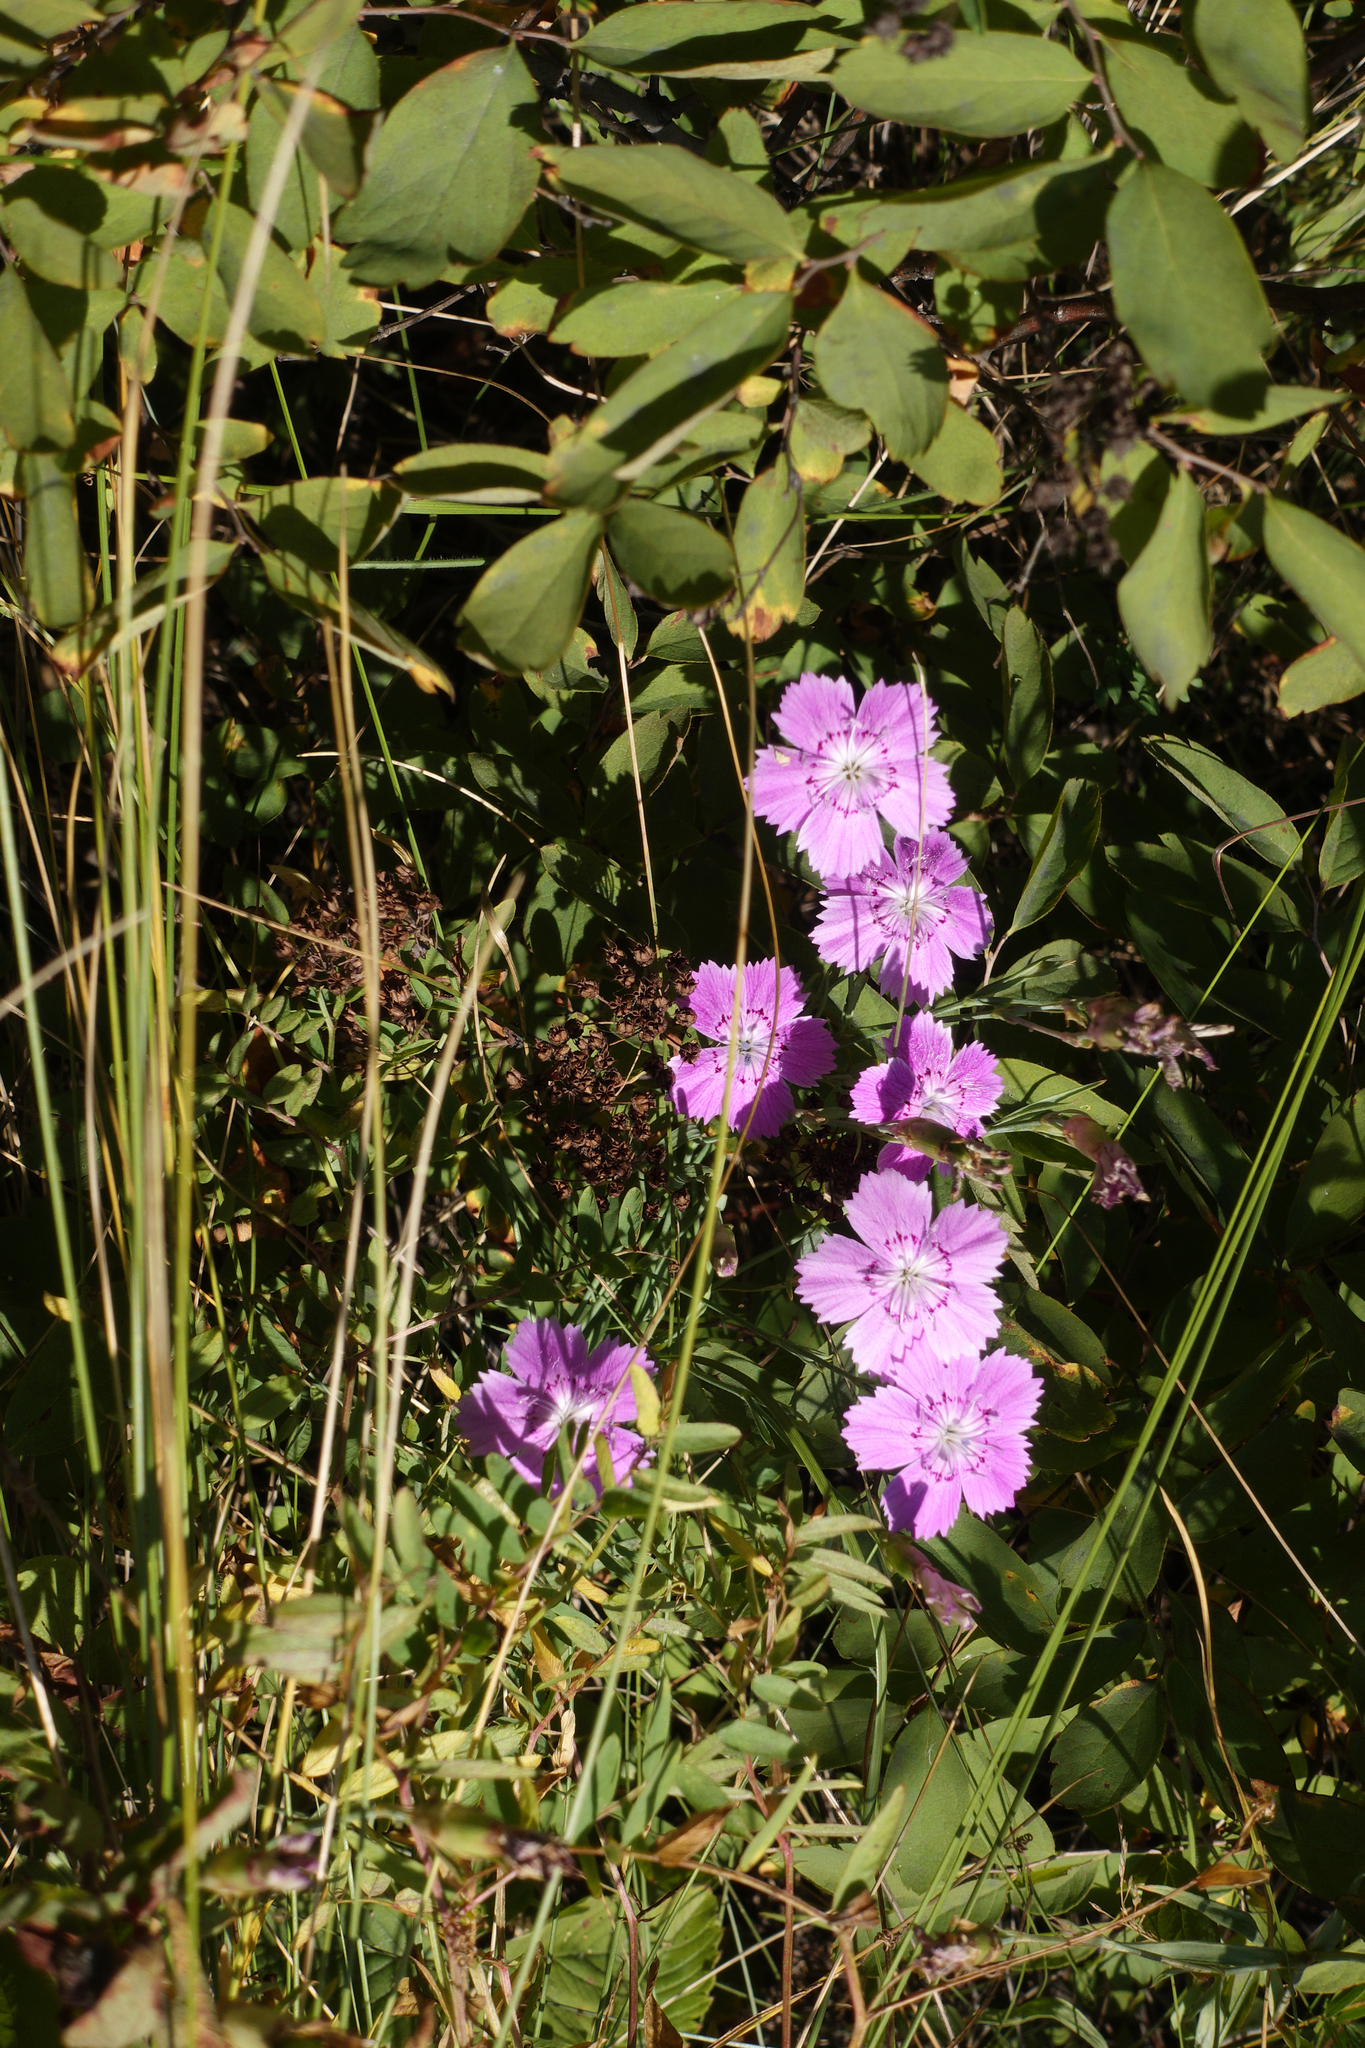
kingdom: Plantae
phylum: Tracheophyta
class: Magnoliopsida
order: Caryophyllales
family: Caryophyllaceae
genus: Dianthus
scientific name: Dianthus chinensis
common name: Rainbow pink
